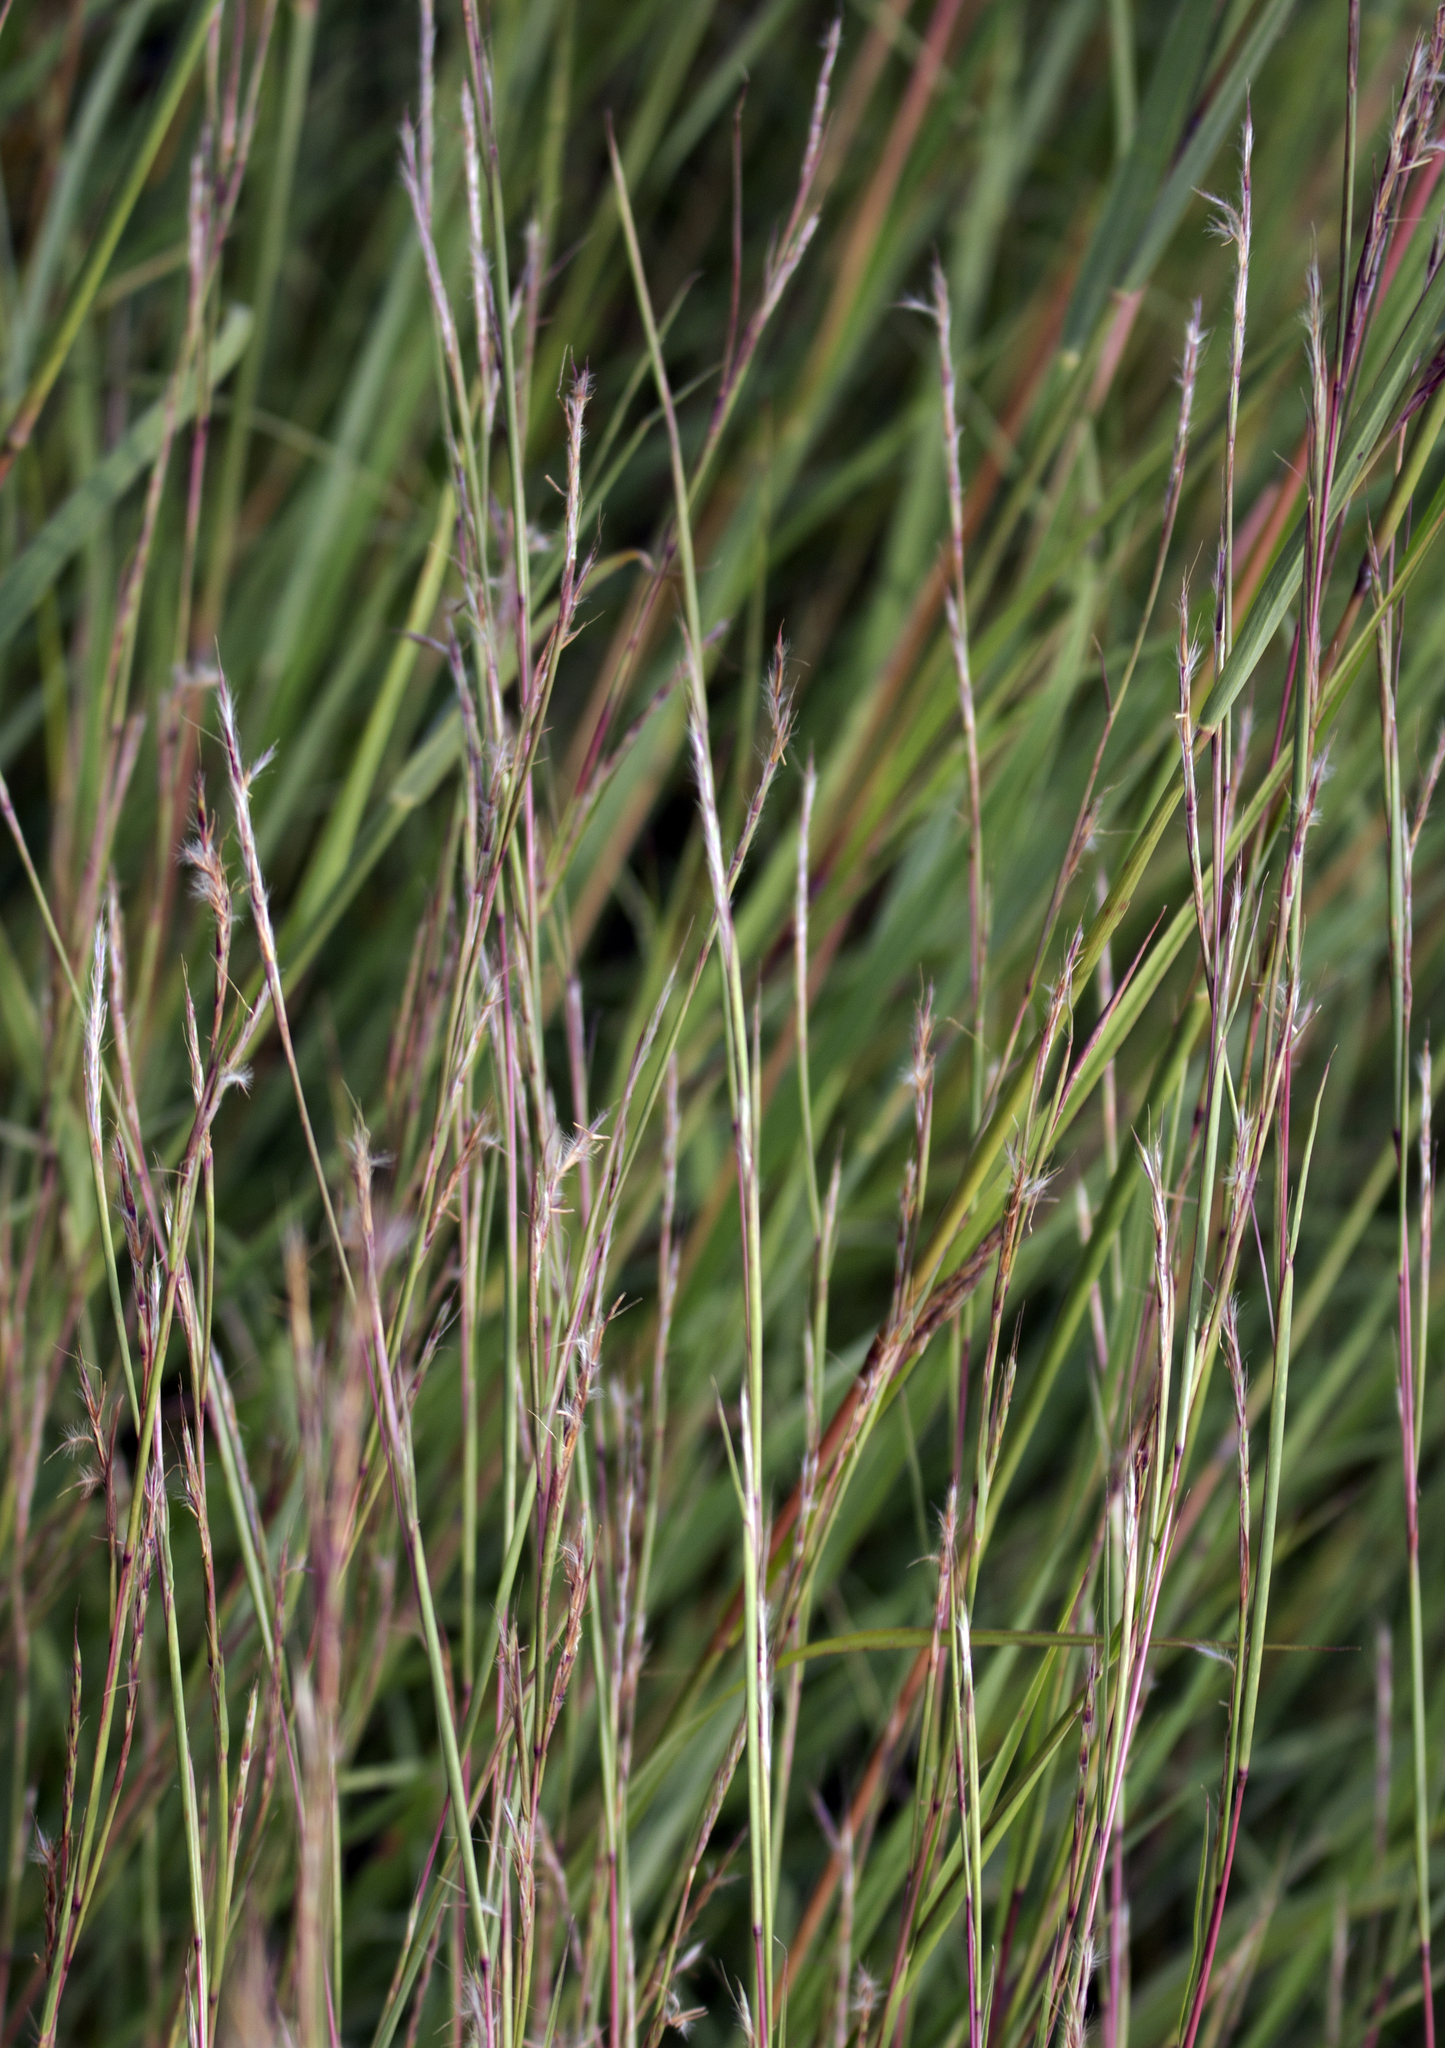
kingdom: Plantae
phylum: Tracheophyta
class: Liliopsida
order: Poales
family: Poaceae
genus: Schizachyrium
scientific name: Schizachyrium scoparium
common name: Little bluestem
